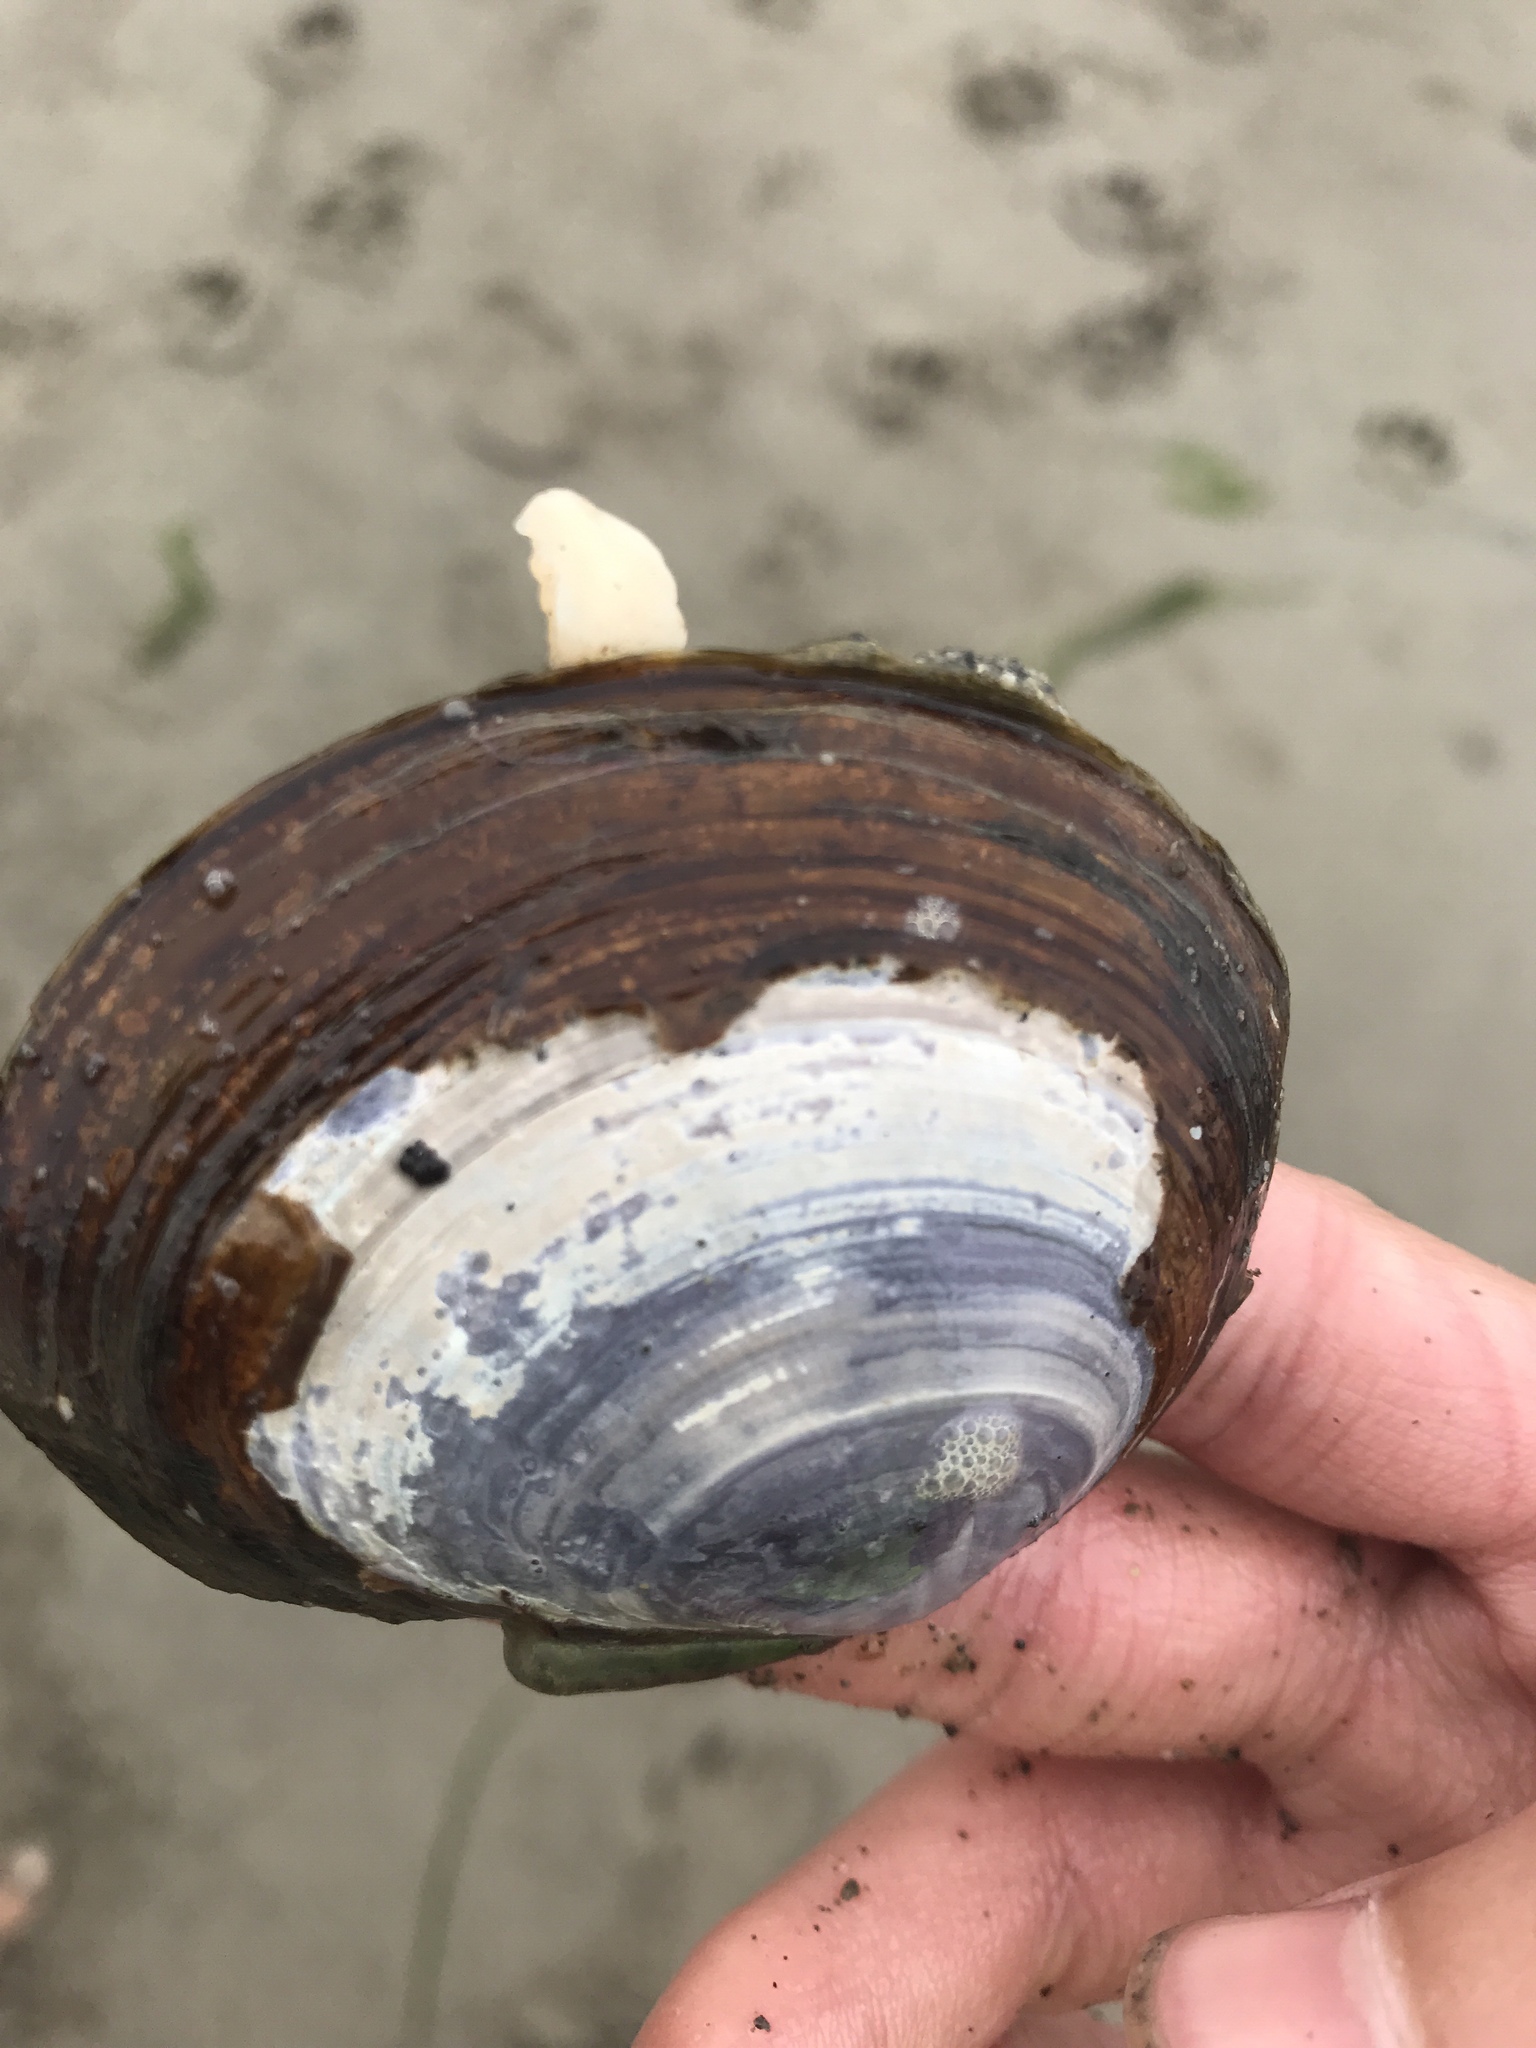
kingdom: Animalia
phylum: Mollusca
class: Bivalvia
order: Cardiida
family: Psammobiidae
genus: Nuttallia
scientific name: Nuttallia obscurata
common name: Purple mahogany-clam
